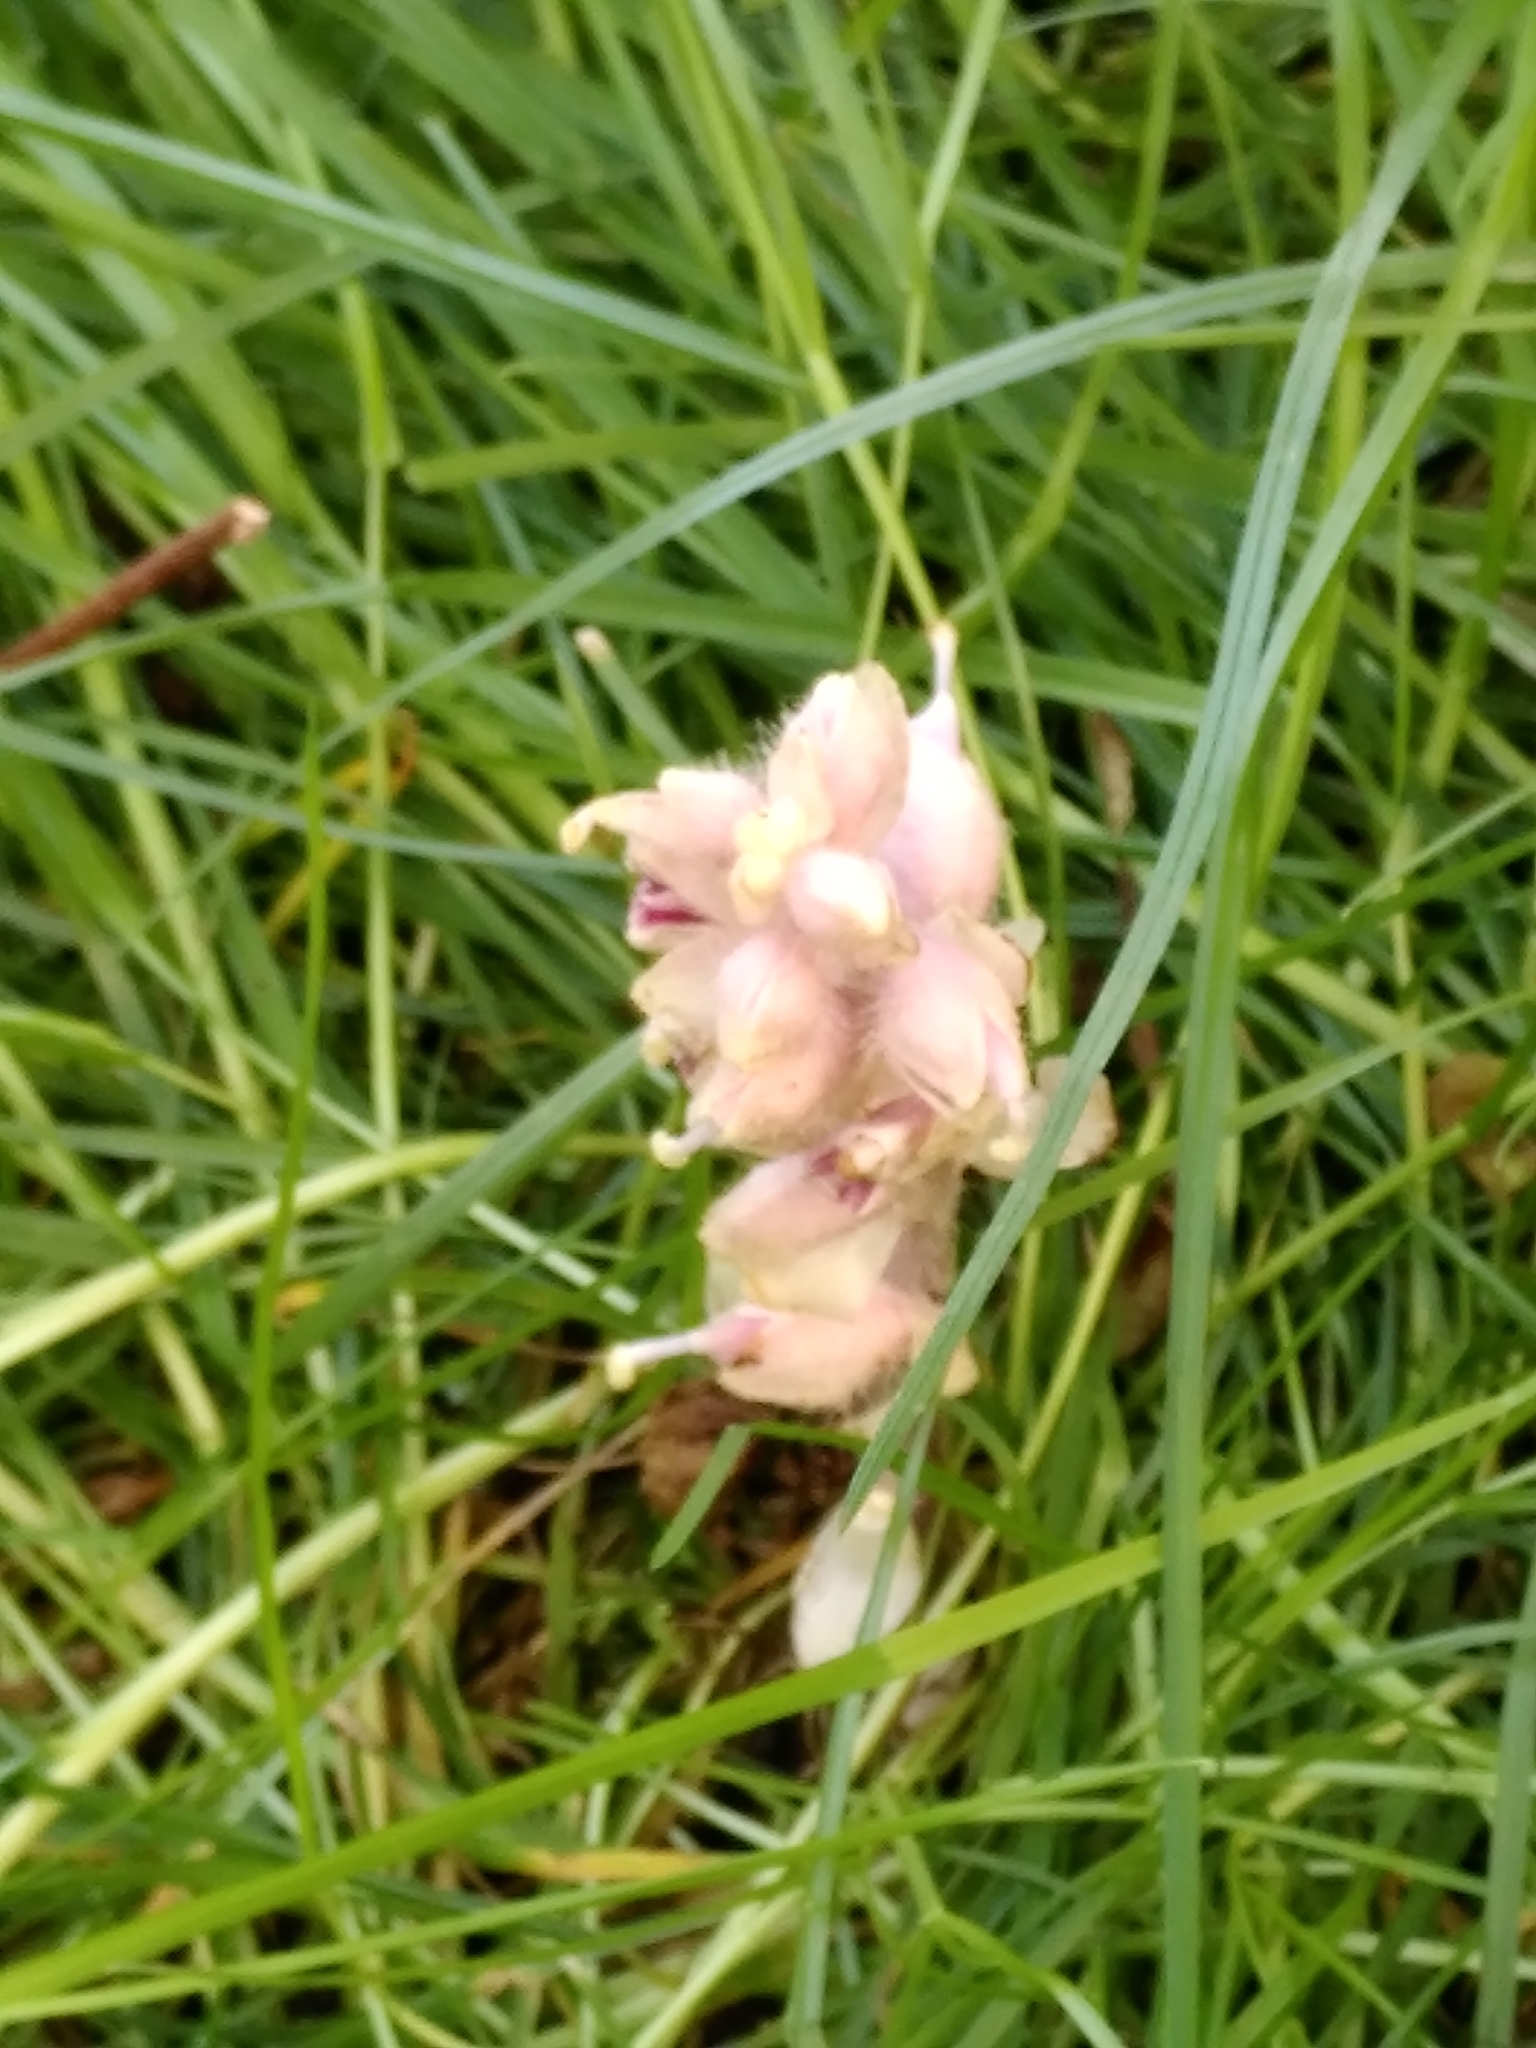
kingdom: Plantae
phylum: Tracheophyta
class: Magnoliopsida
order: Lamiales
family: Orobanchaceae
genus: Lathraea
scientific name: Lathraea squamaria
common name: Toothwort
